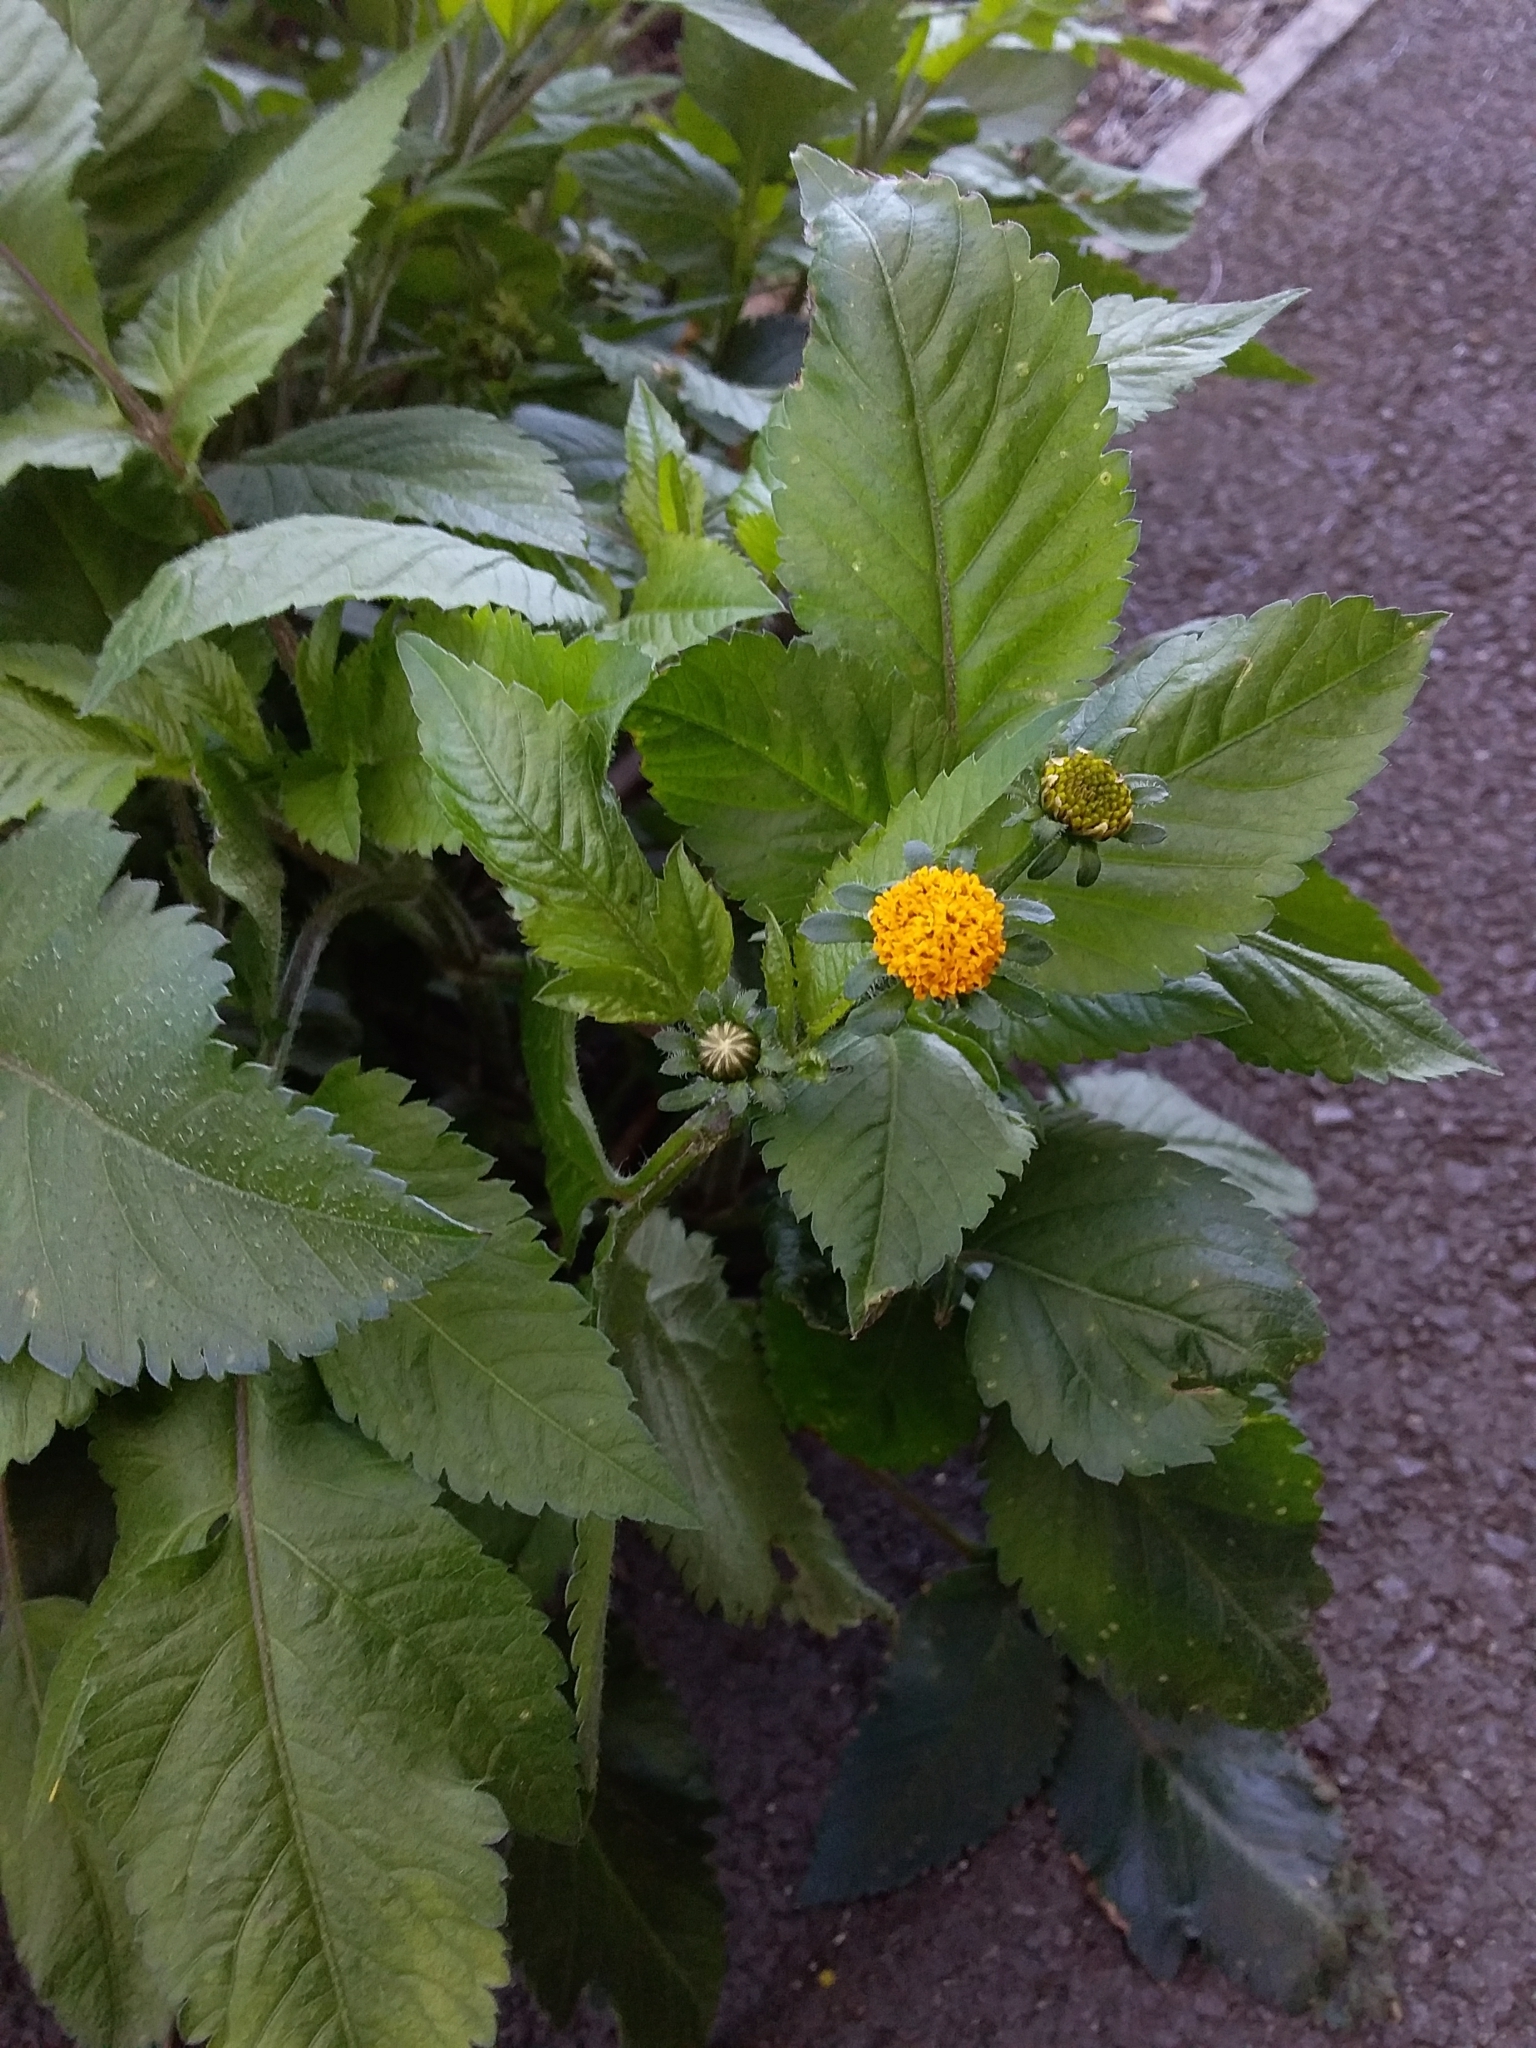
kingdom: Plantae
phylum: Tracheophyta
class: Magnoliopsida
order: Asterales
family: Asteraceae
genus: Bidens
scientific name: Bidens pilosa
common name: Black-jack
